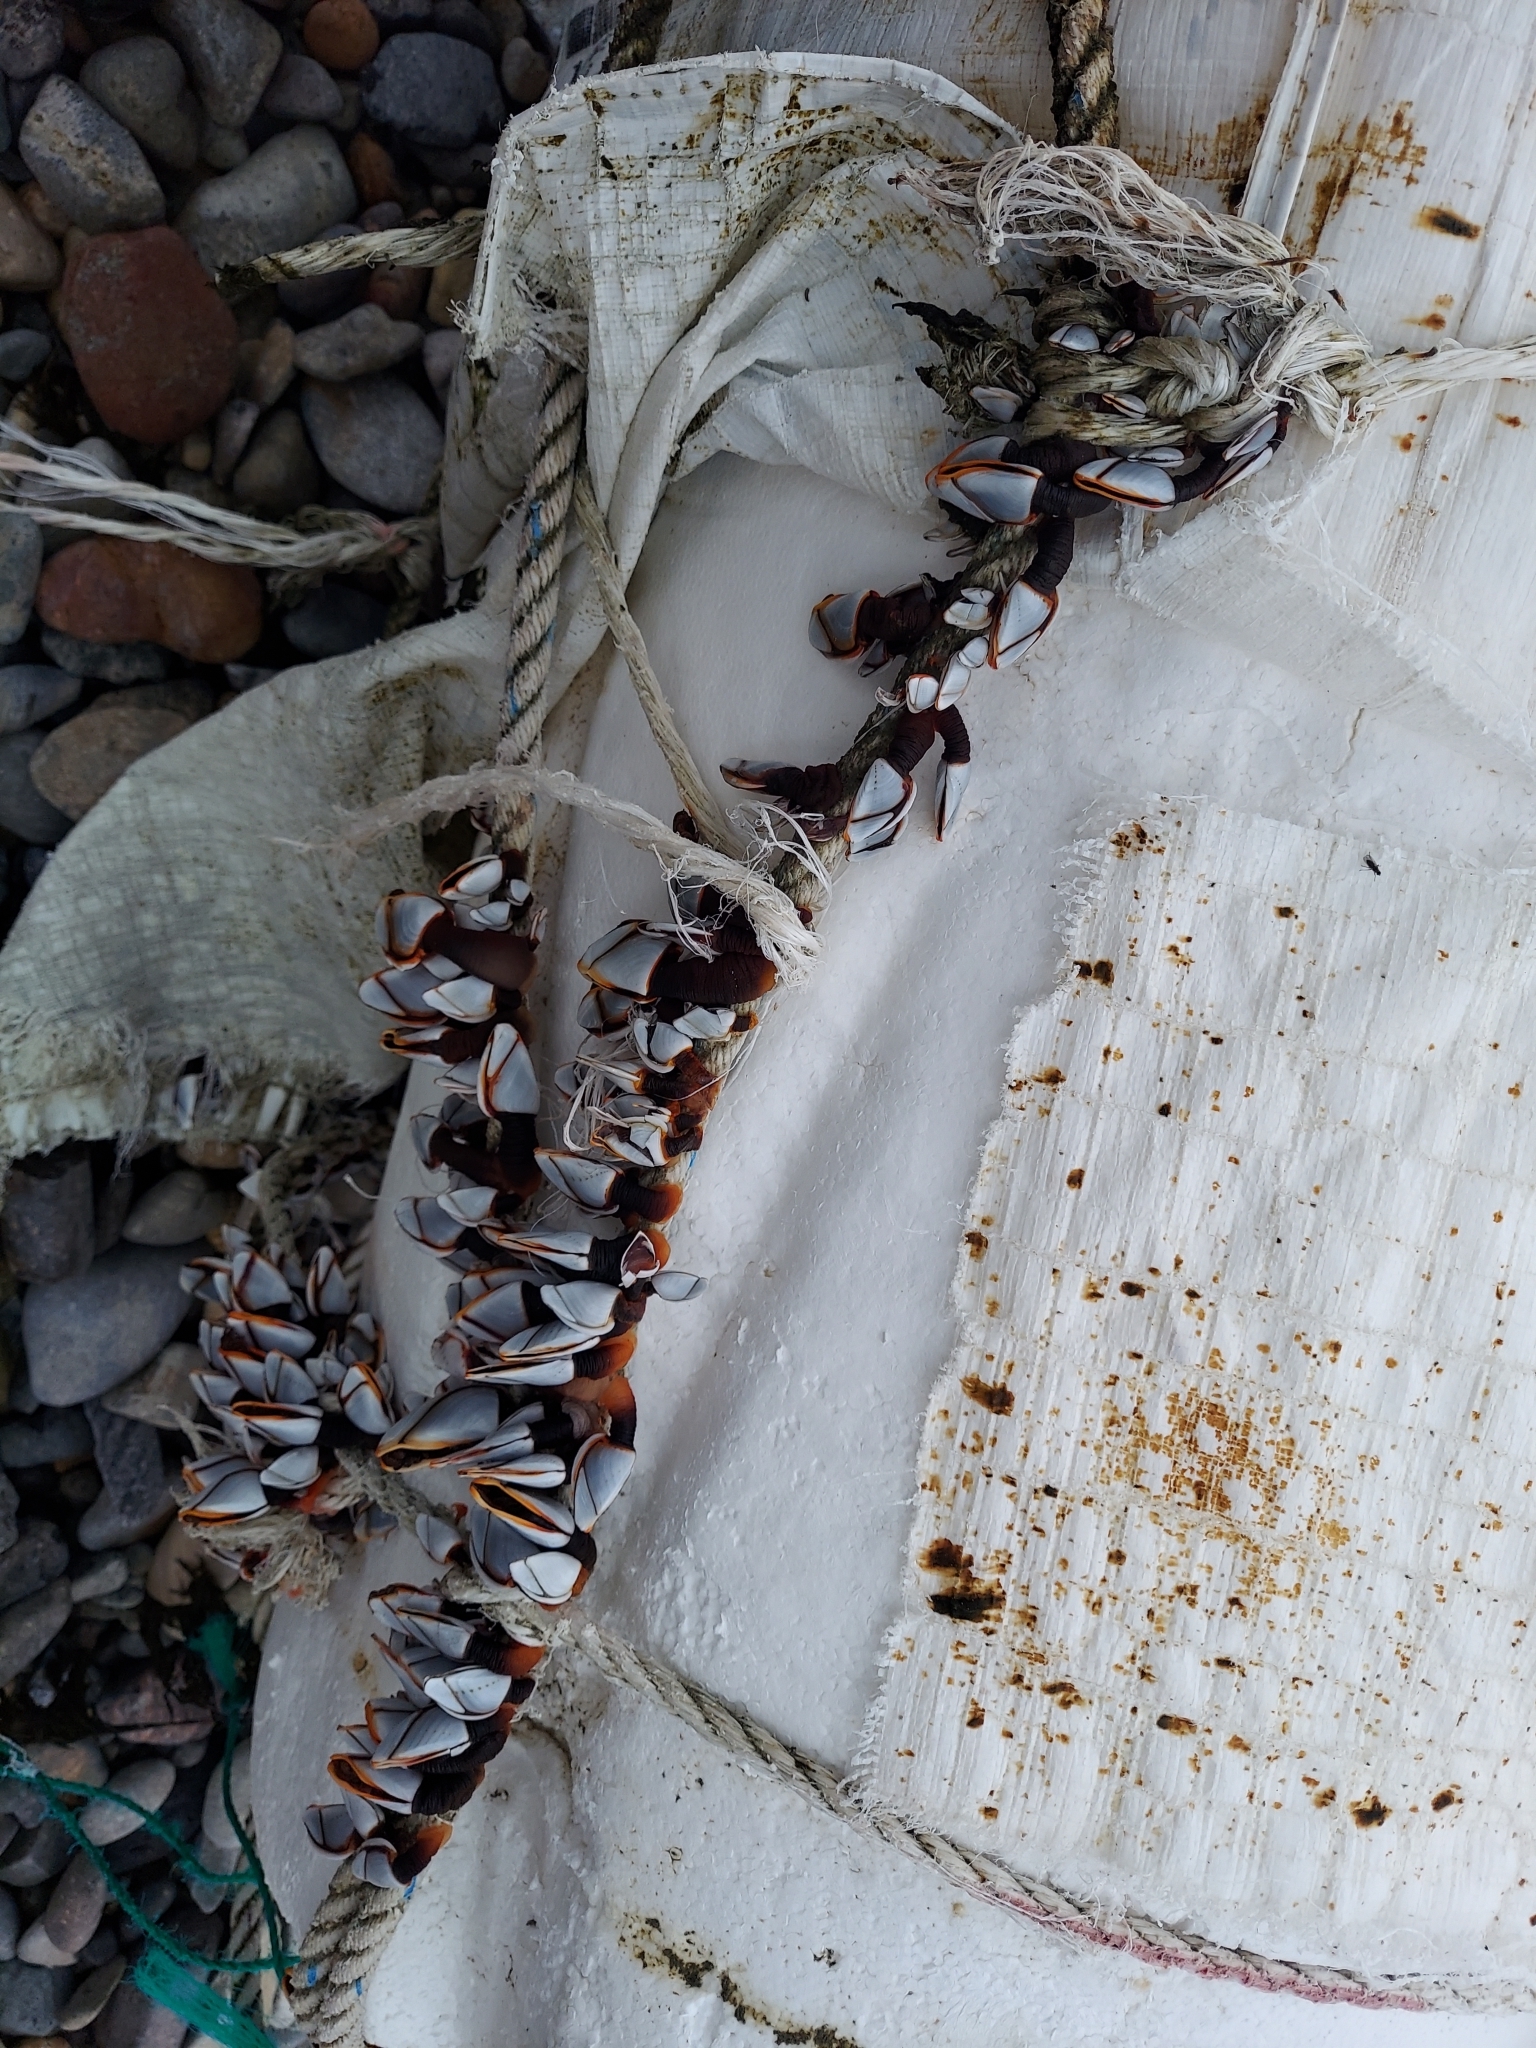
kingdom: Animalia
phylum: Arthropoda
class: Maxillopoda
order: Pedunculata
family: Lepadidae
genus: Lepas
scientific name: Lepas indica
